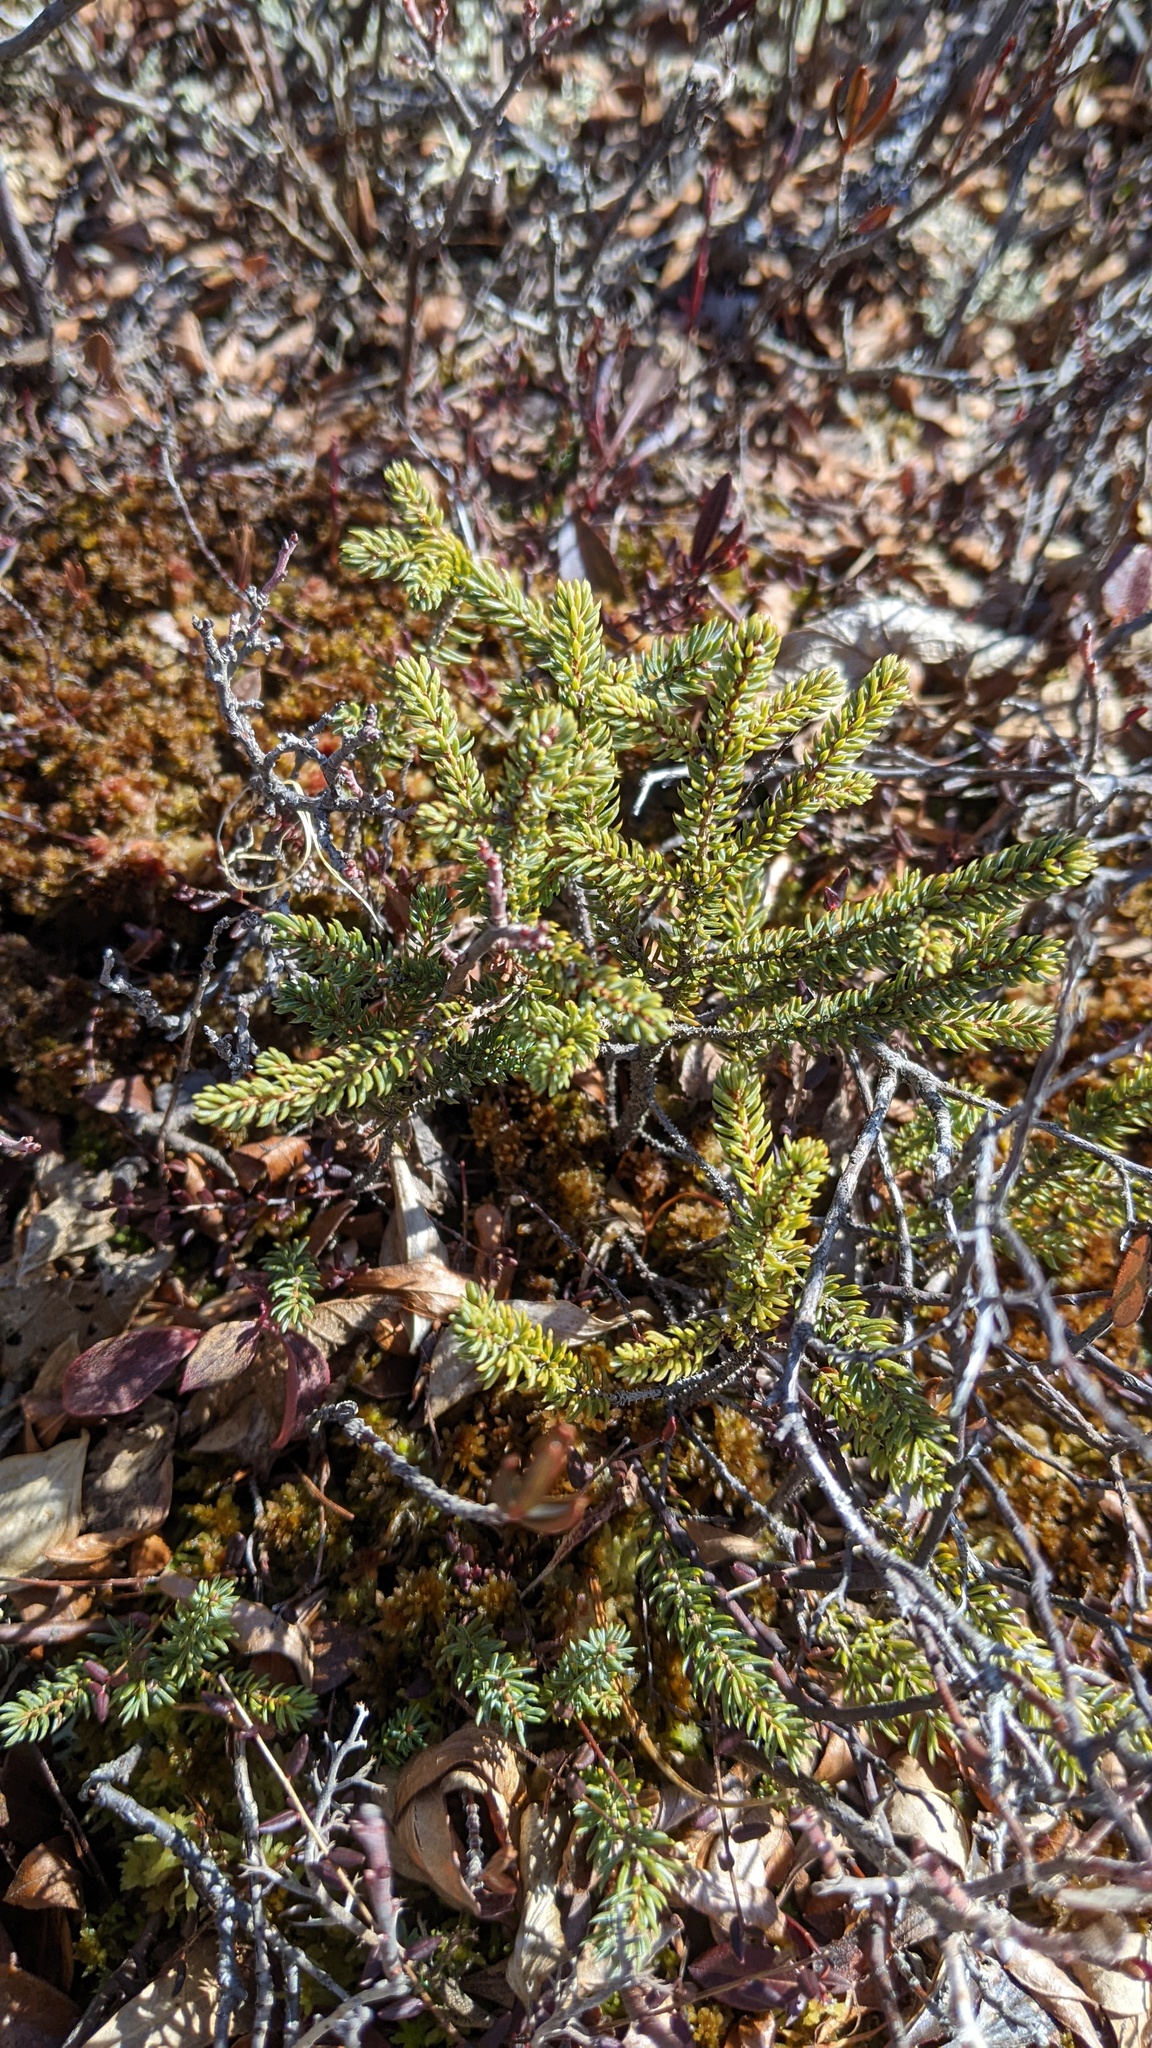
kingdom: Plantae
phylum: Tracheophyta
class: Pinopsida
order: Pinales
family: Pinaceae
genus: Picea
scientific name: Picea mariana
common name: Black spruce
